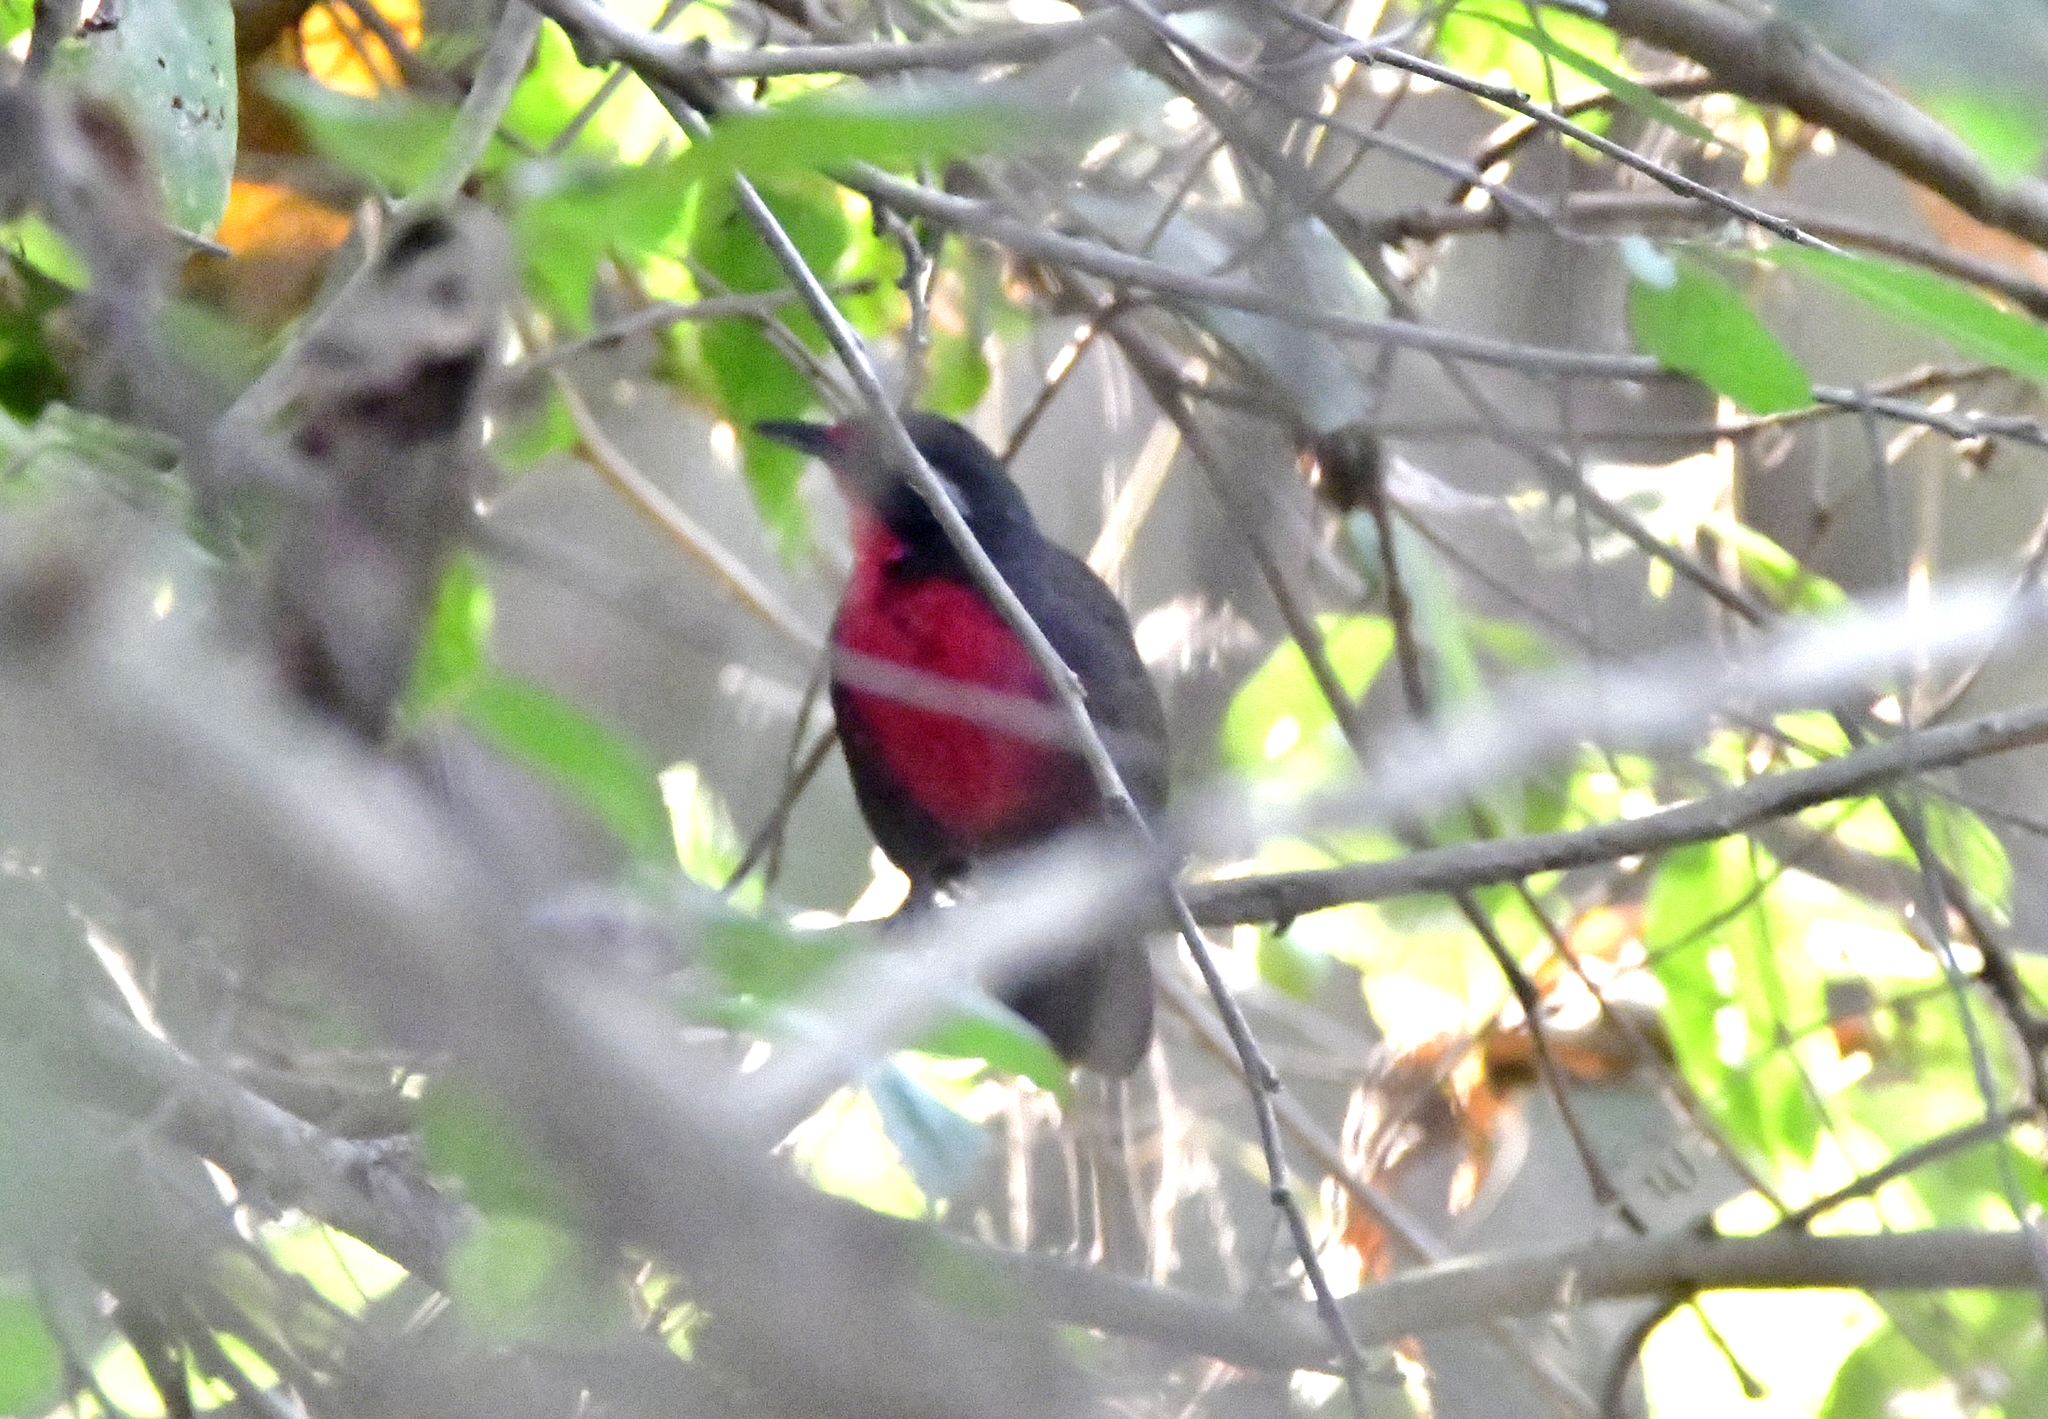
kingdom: Animalia
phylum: Chordata
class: Aves
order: Passeriformes
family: Rhodinocichlidae
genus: Rhodinocichla
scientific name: Rhodinocichla rosea
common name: Rosy thrush-tanager
